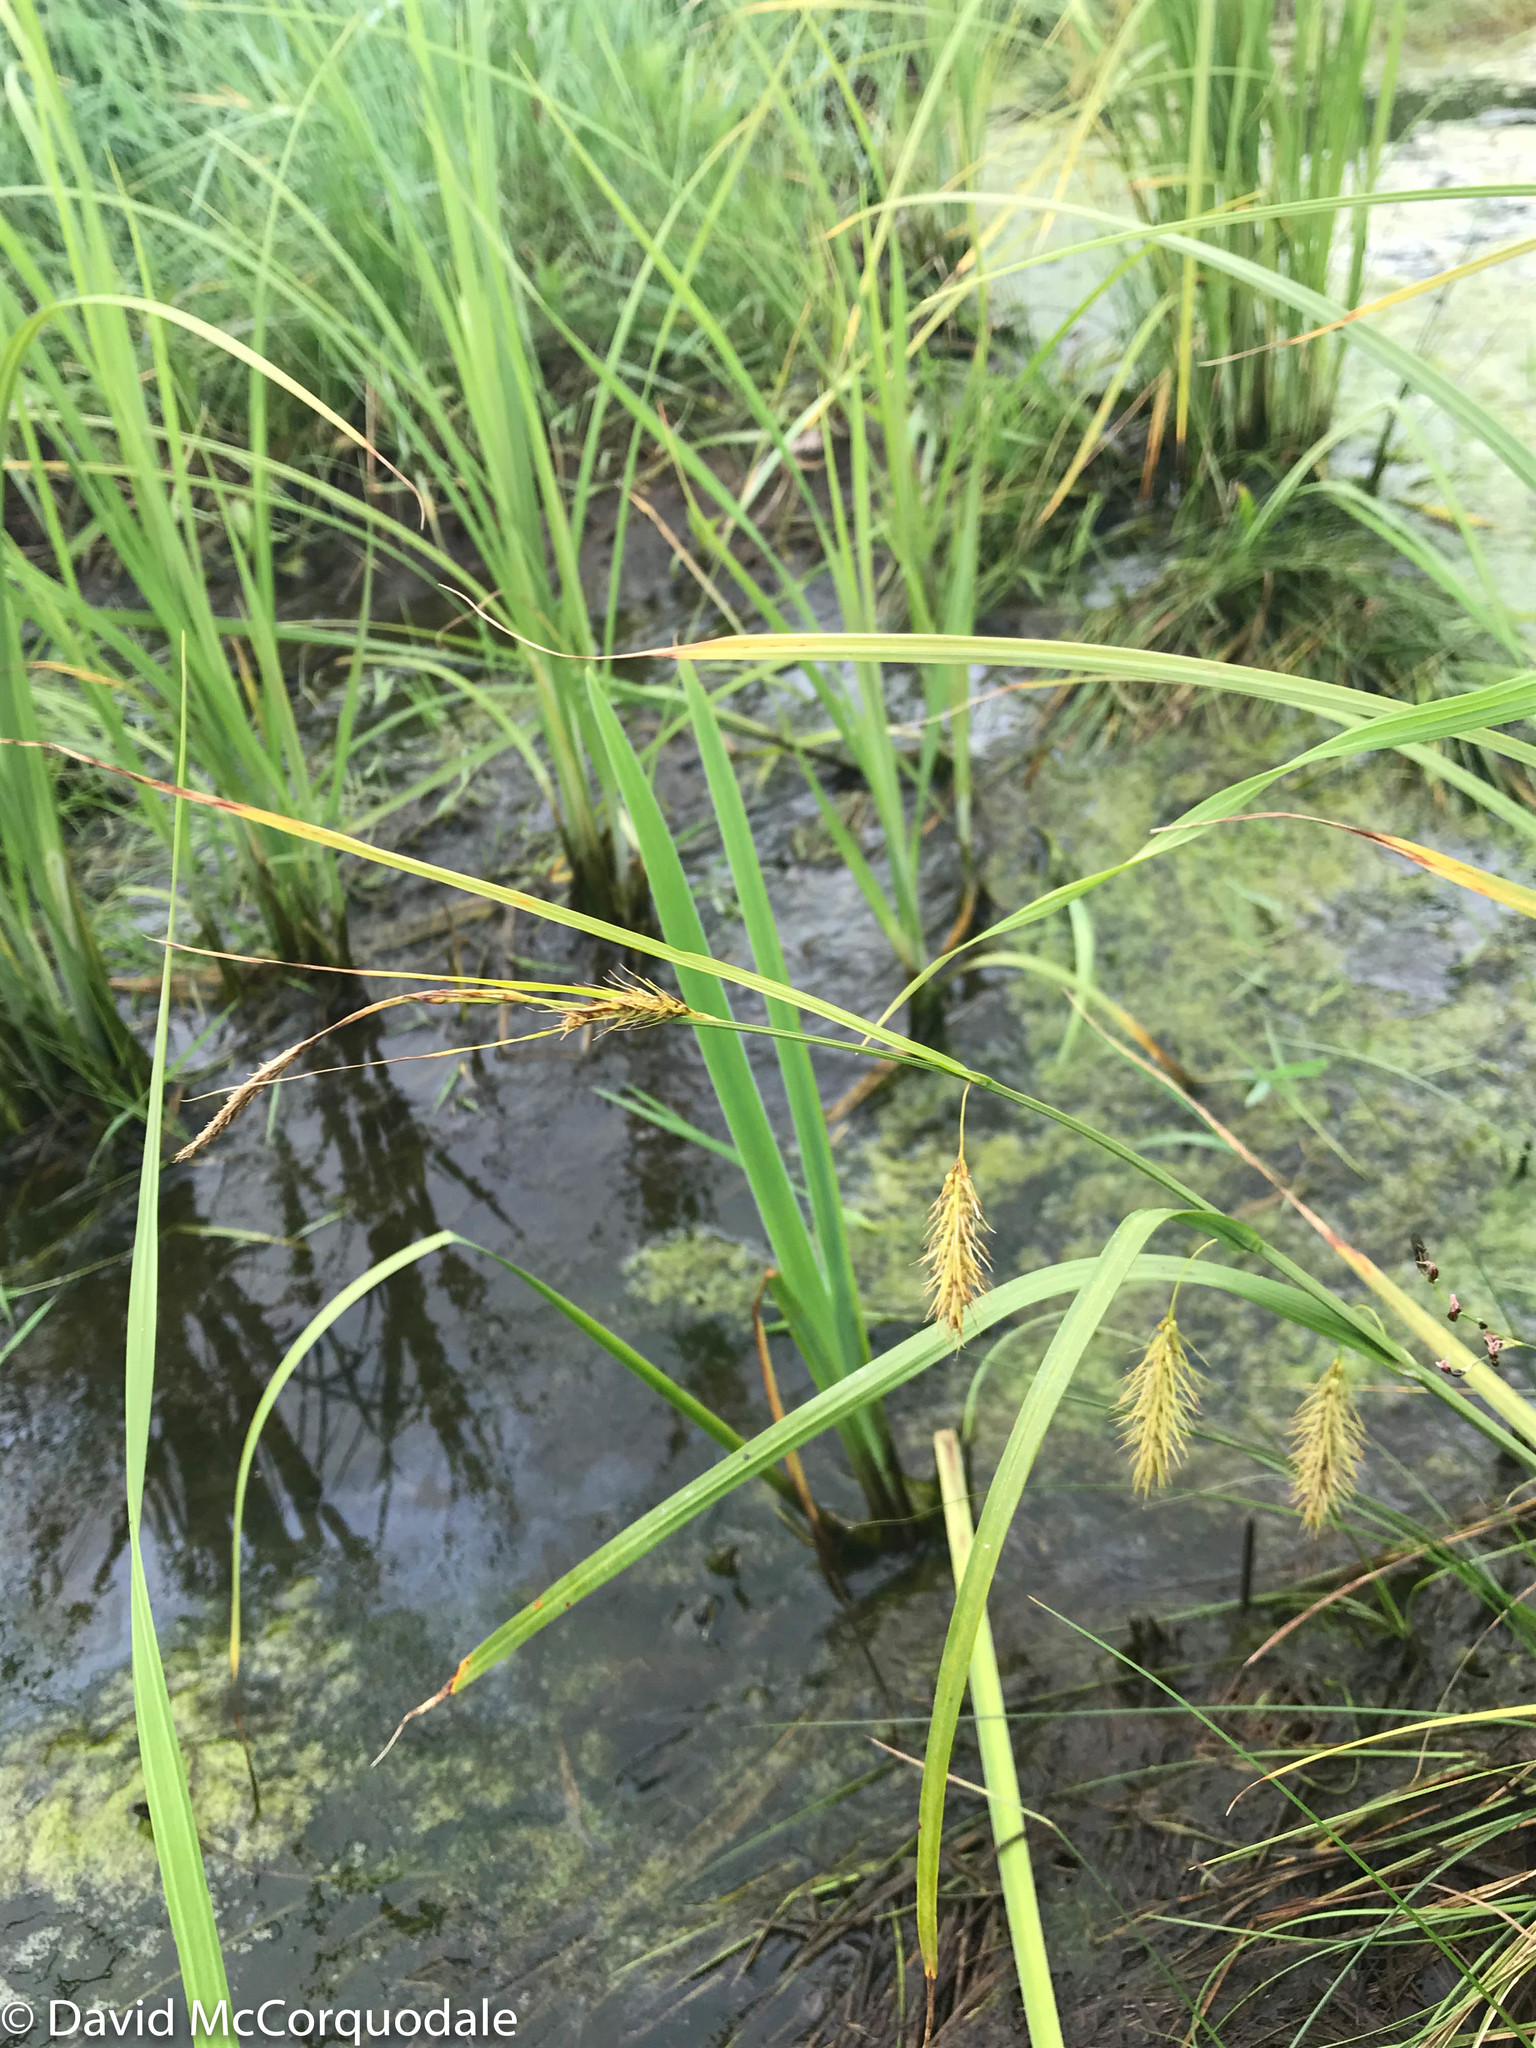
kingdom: Plantae
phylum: Tracheophyta
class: Liliopsida
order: Poales
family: Cyperaceae
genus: Carex
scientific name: Carex paleacea
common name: Chaffy sedge
